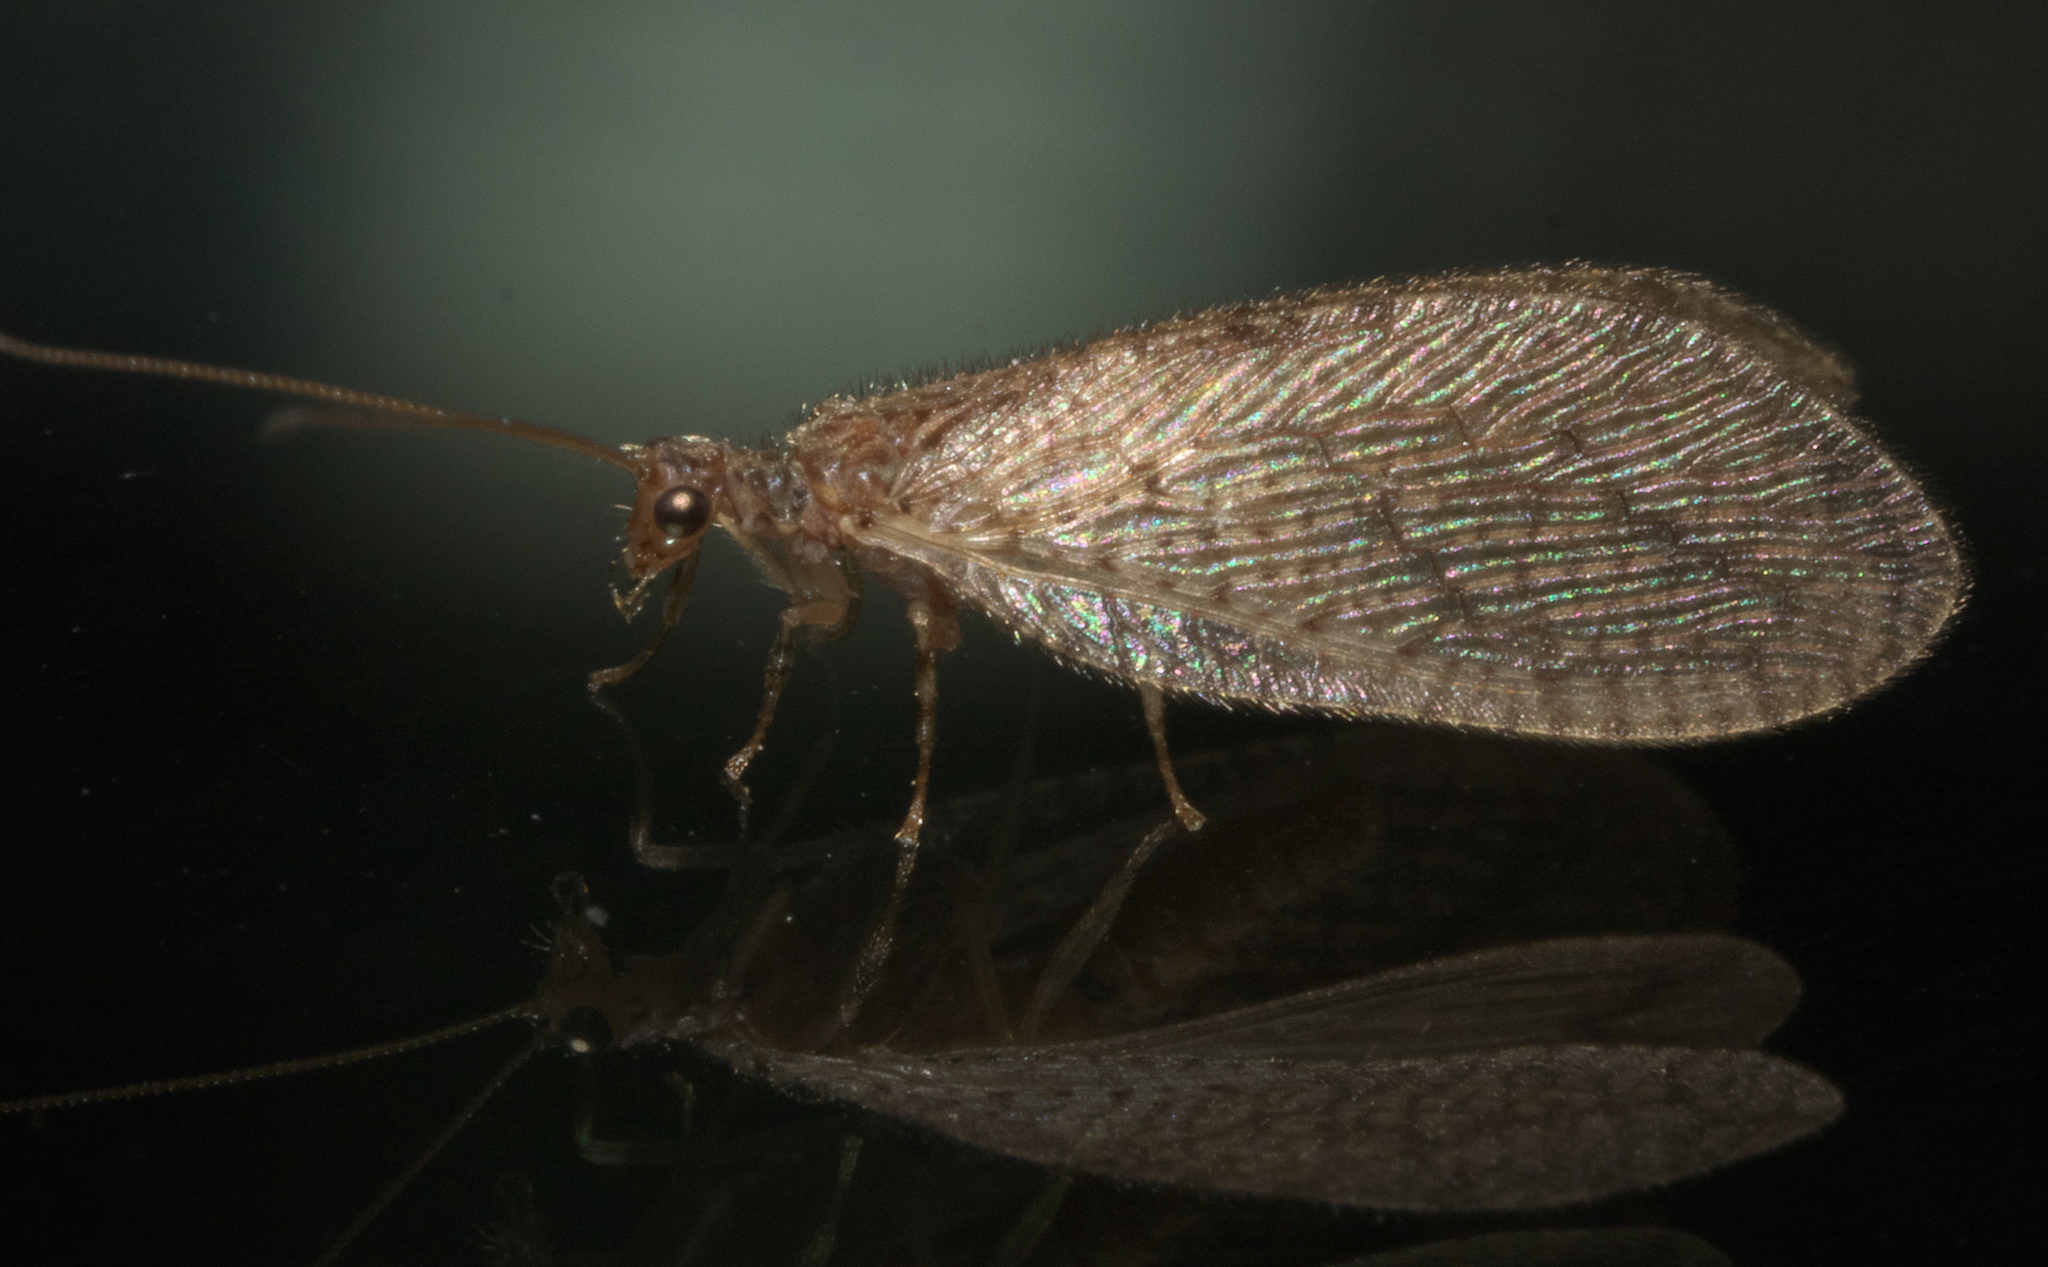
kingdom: Animalia
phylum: Arthropoda
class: Insecta
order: Neuroptera
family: Hemerobiidae
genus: Micromus
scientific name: Micromus posticus
